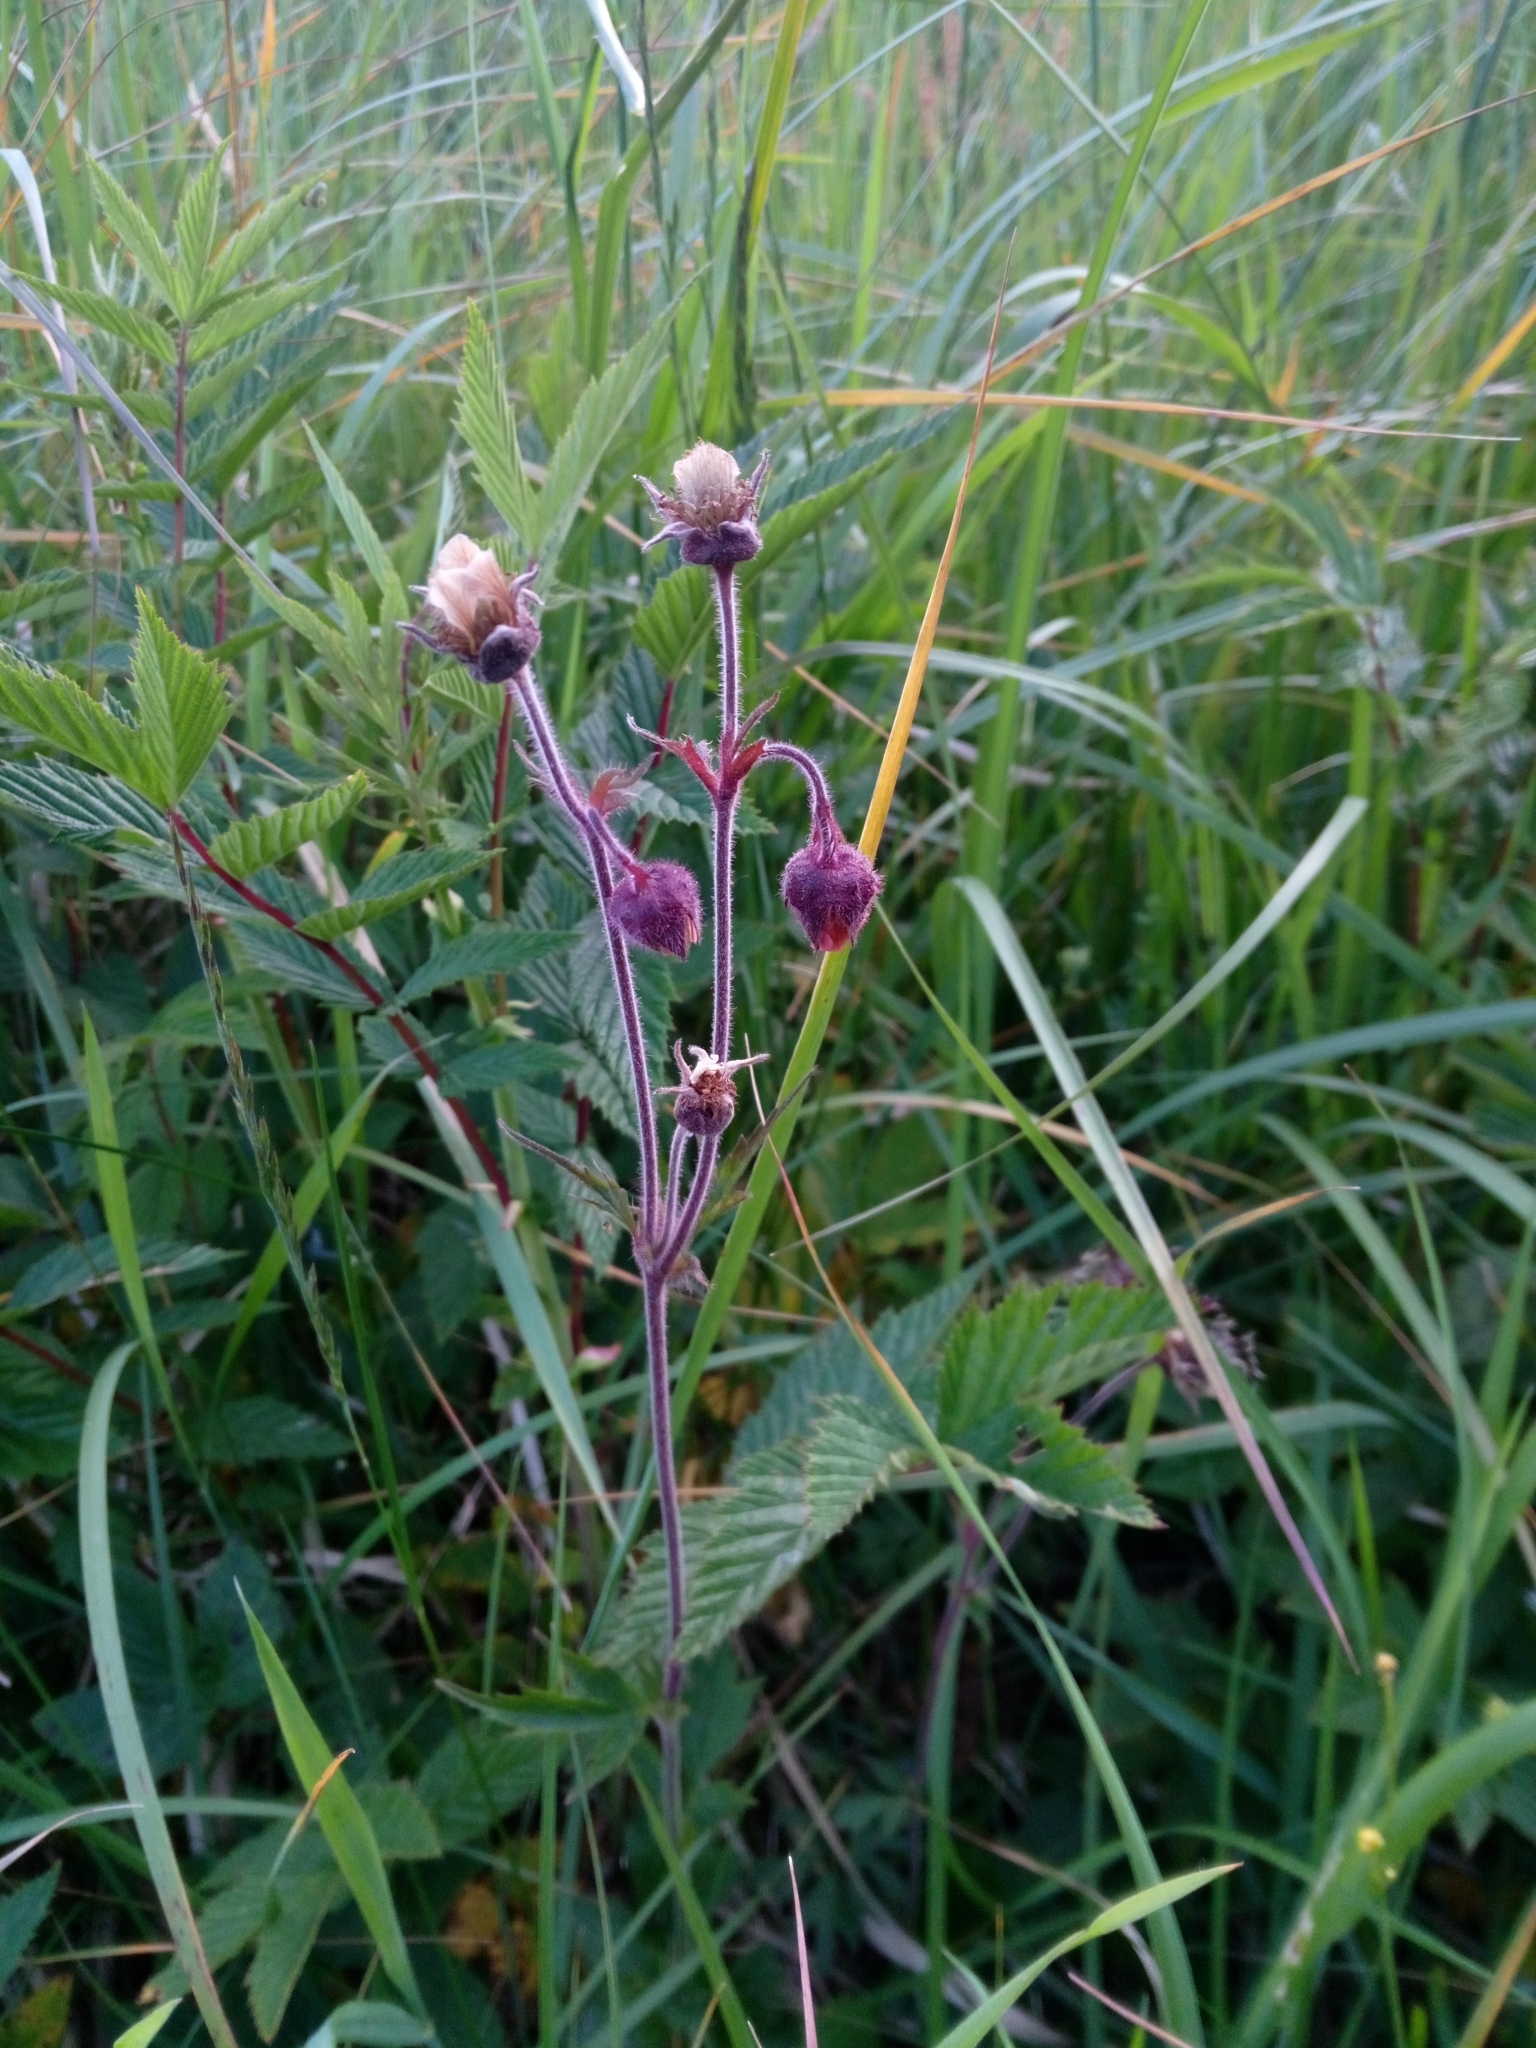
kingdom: Plantae
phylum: Tracheophyta
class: Magnoliopsida
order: Rosales
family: Rosaceae
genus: Geum
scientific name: Geum rivale
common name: Water avens
